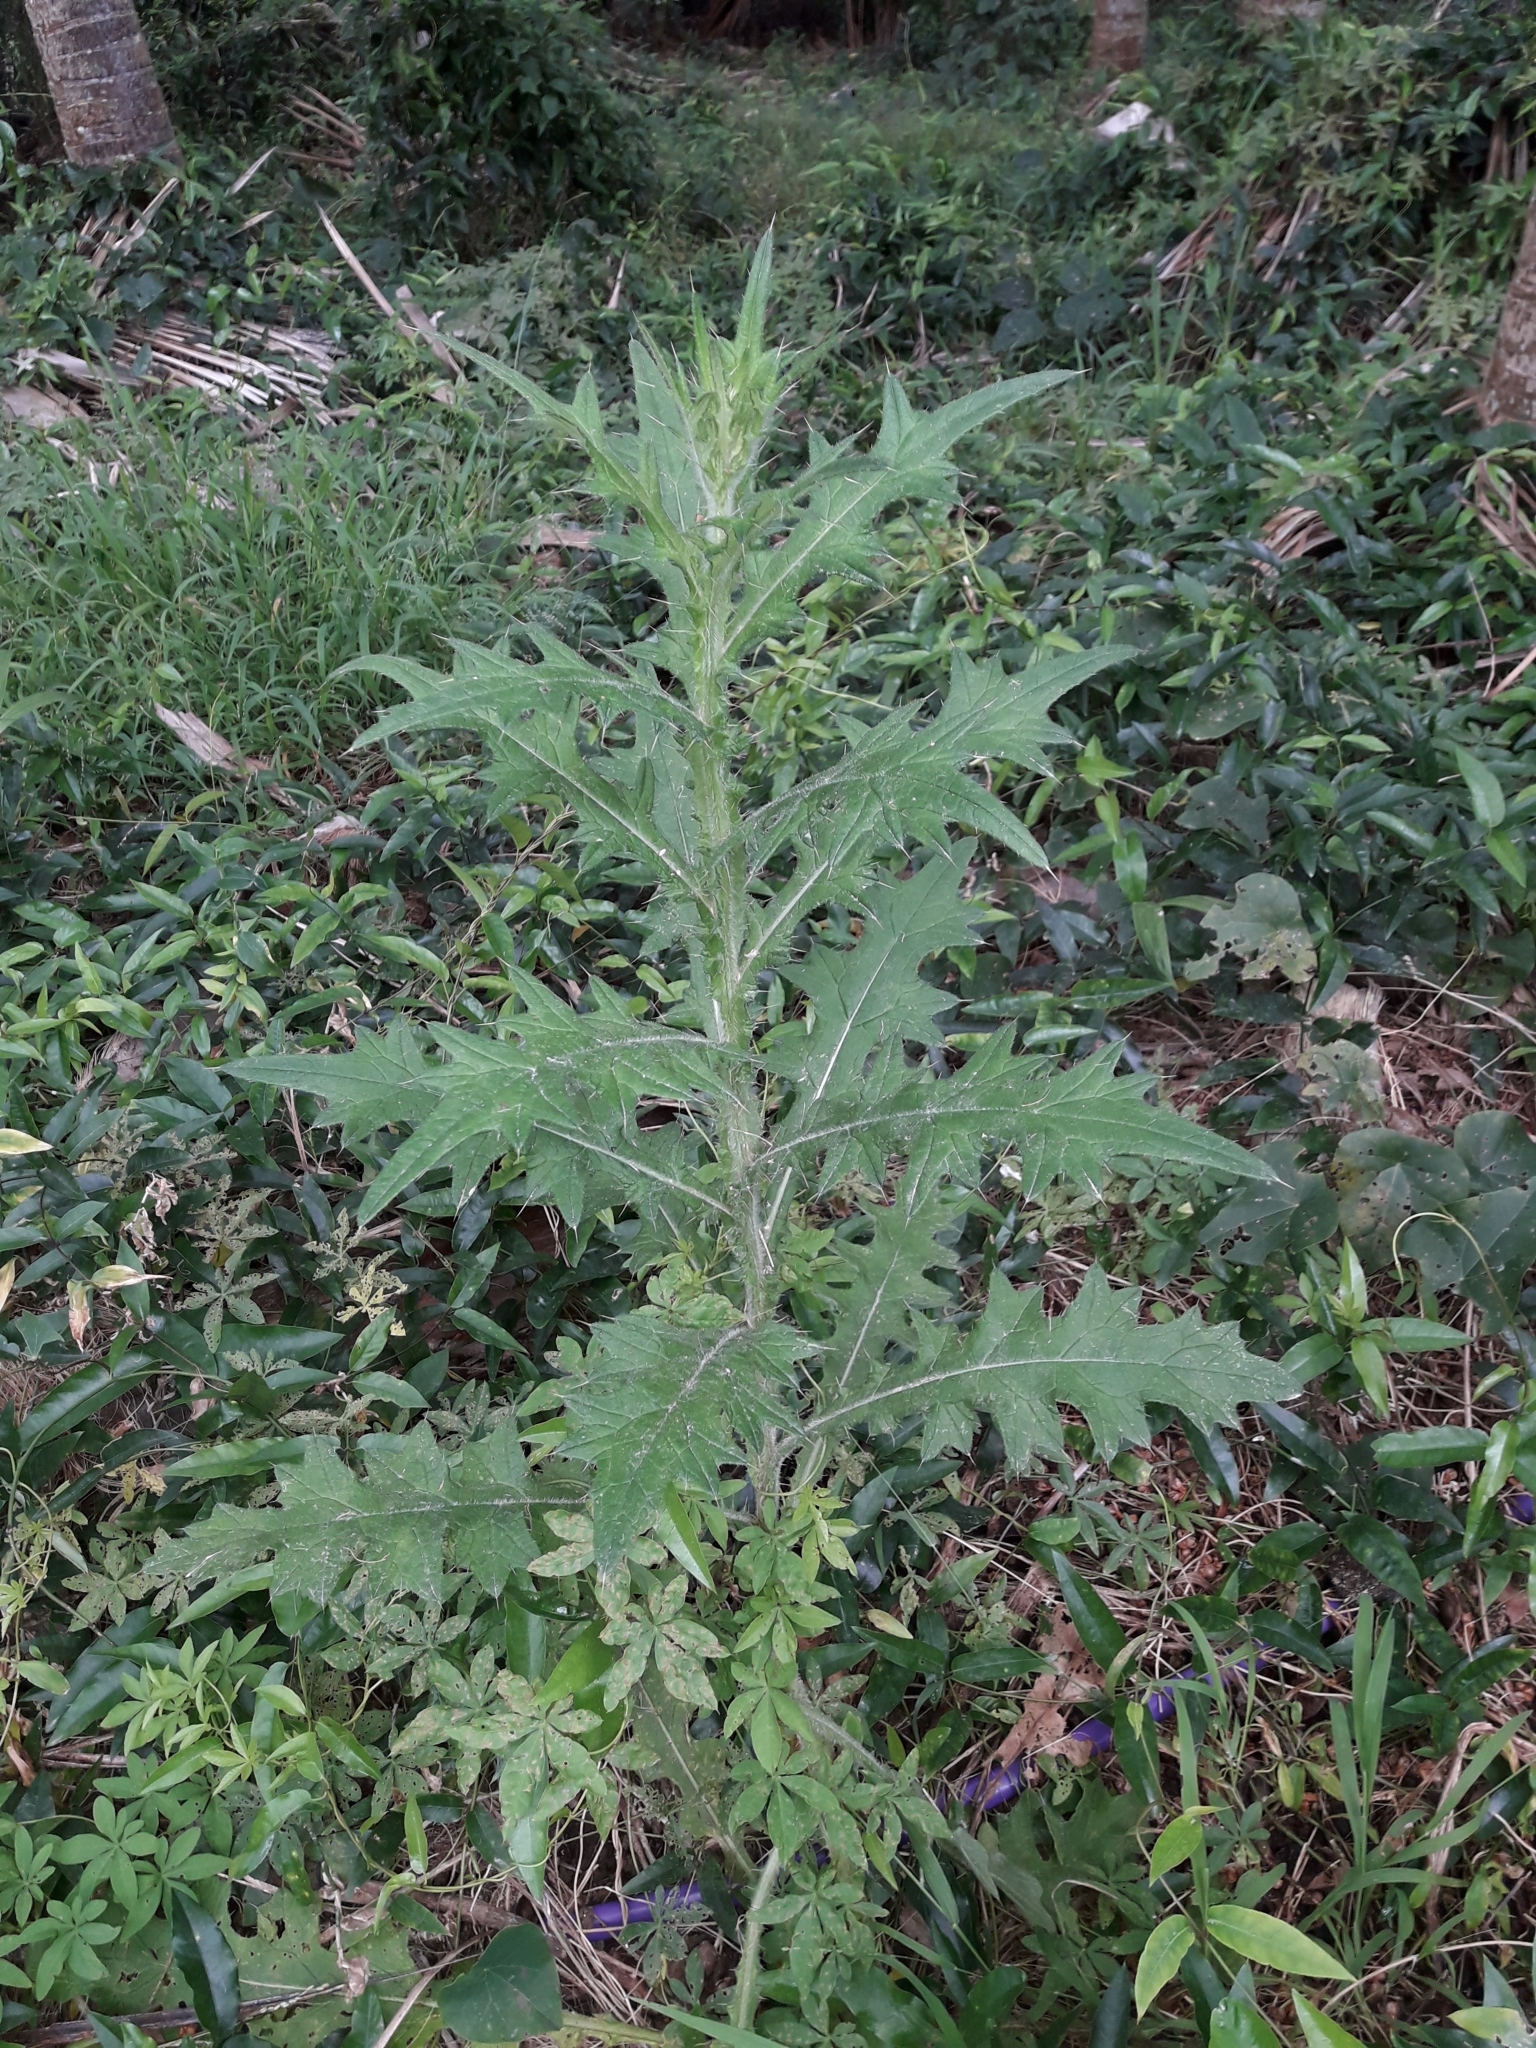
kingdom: Plantae
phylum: Tracheophyta
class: Magnoliopsida
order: Asterales
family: Asteraceae
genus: Cirsium
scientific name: Cirsium vulgare
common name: Bull thistle
